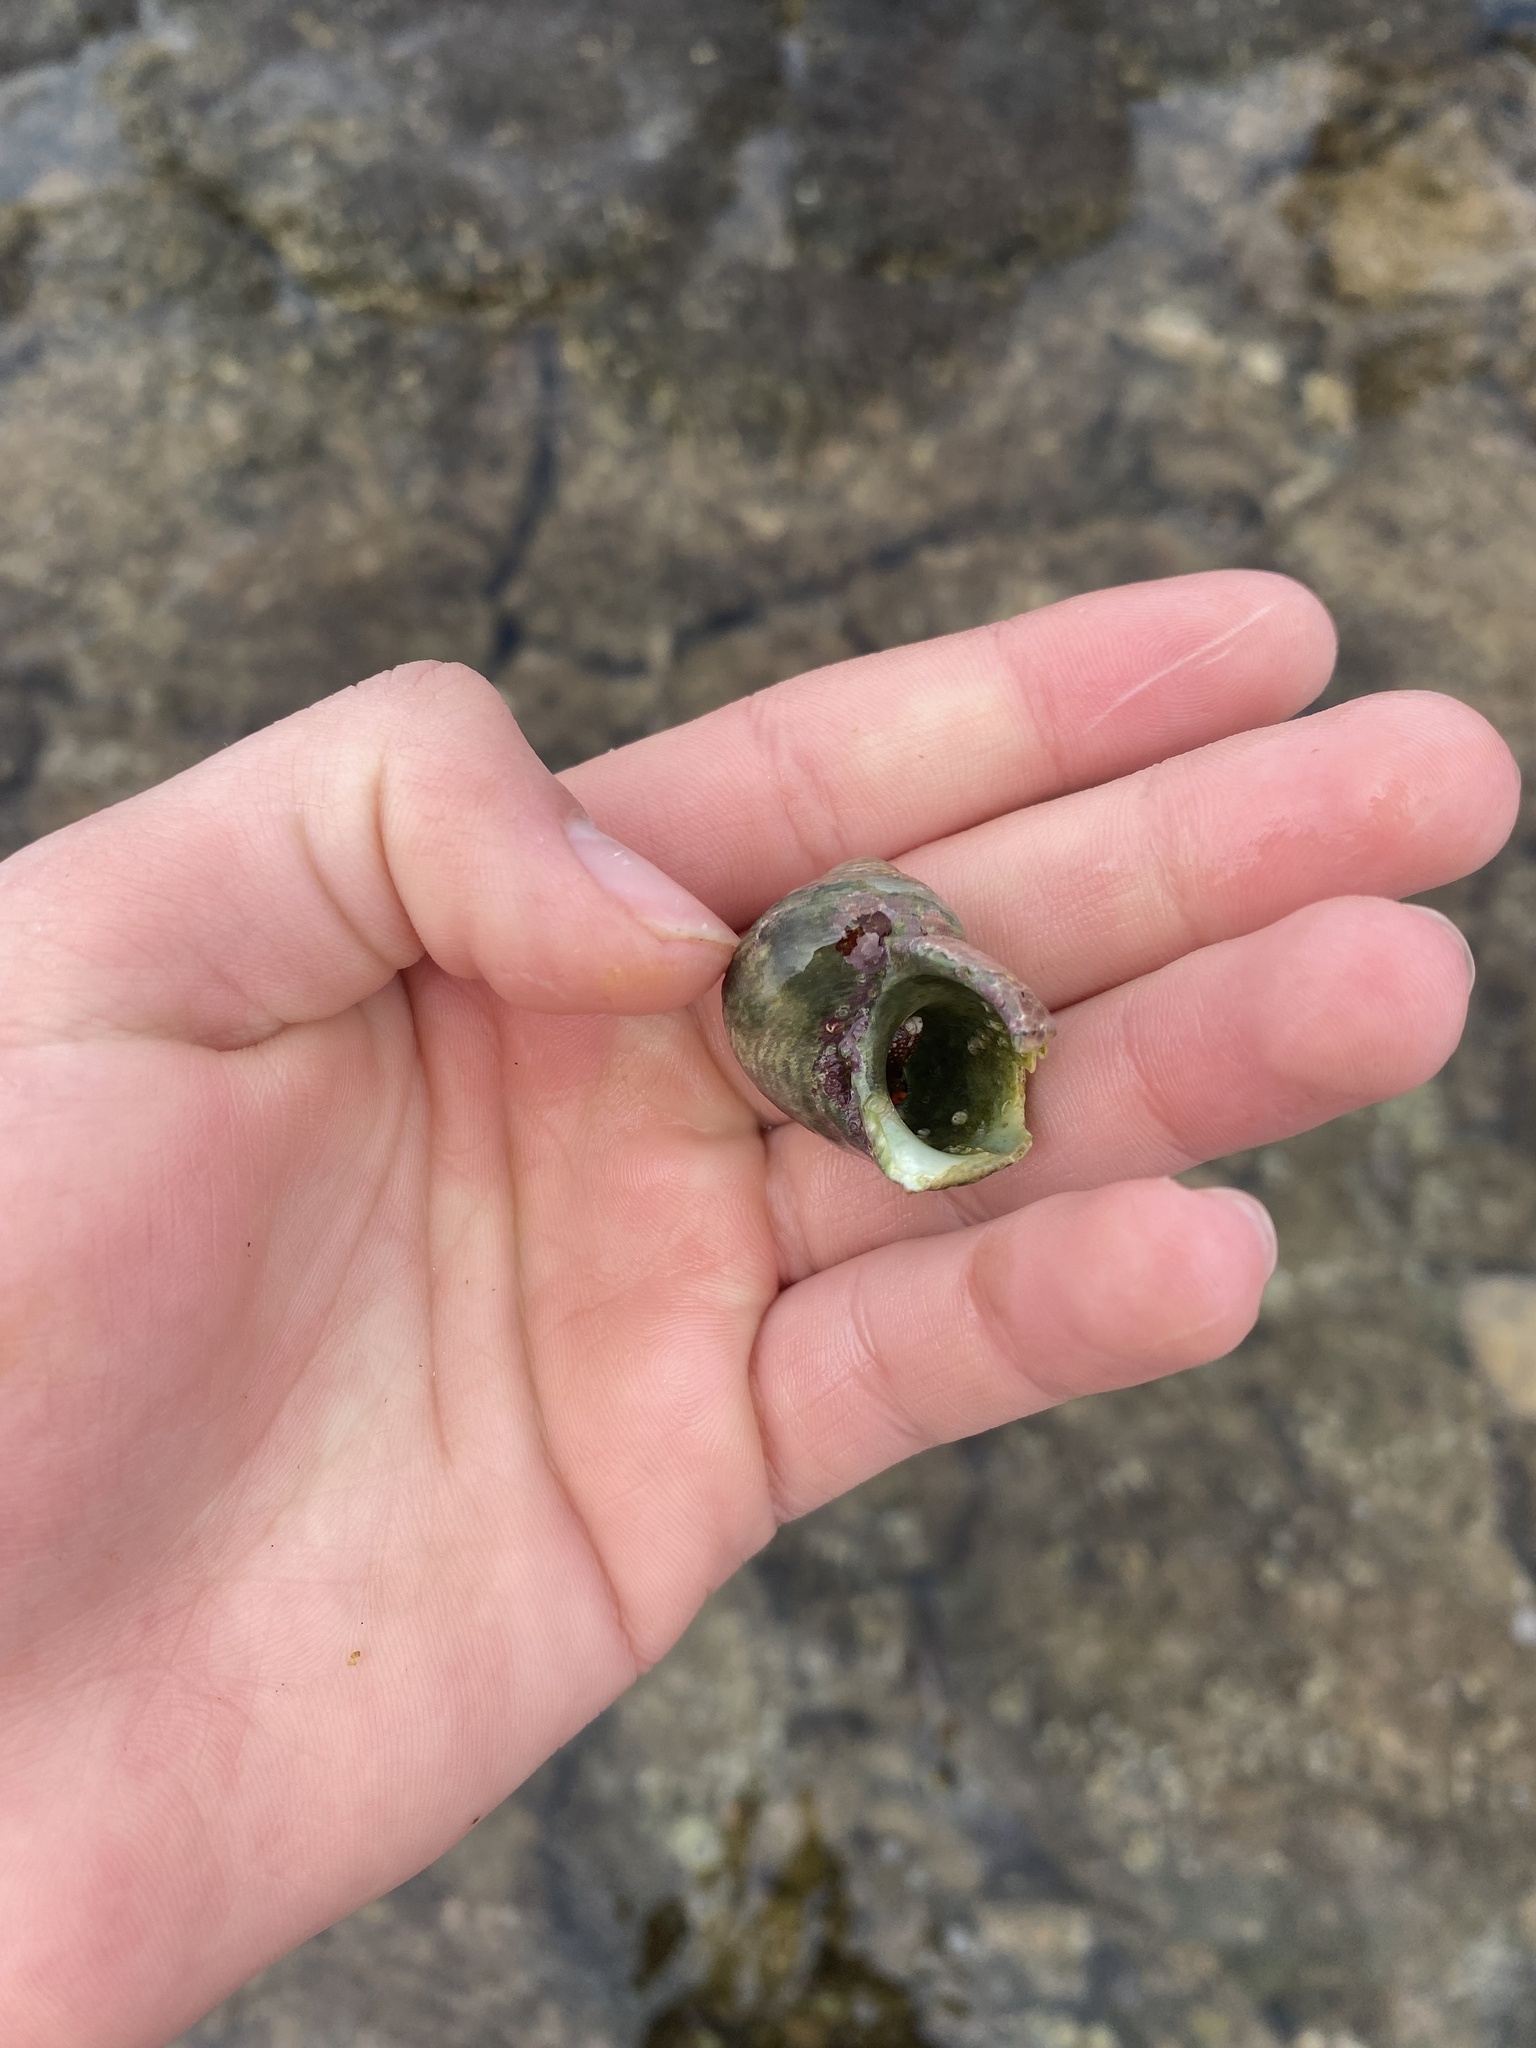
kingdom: Animalia
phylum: Mollusca
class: Gastropoda
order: Trochida
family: Turbinidae
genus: Turbo
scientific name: Turbo sandwicensis
